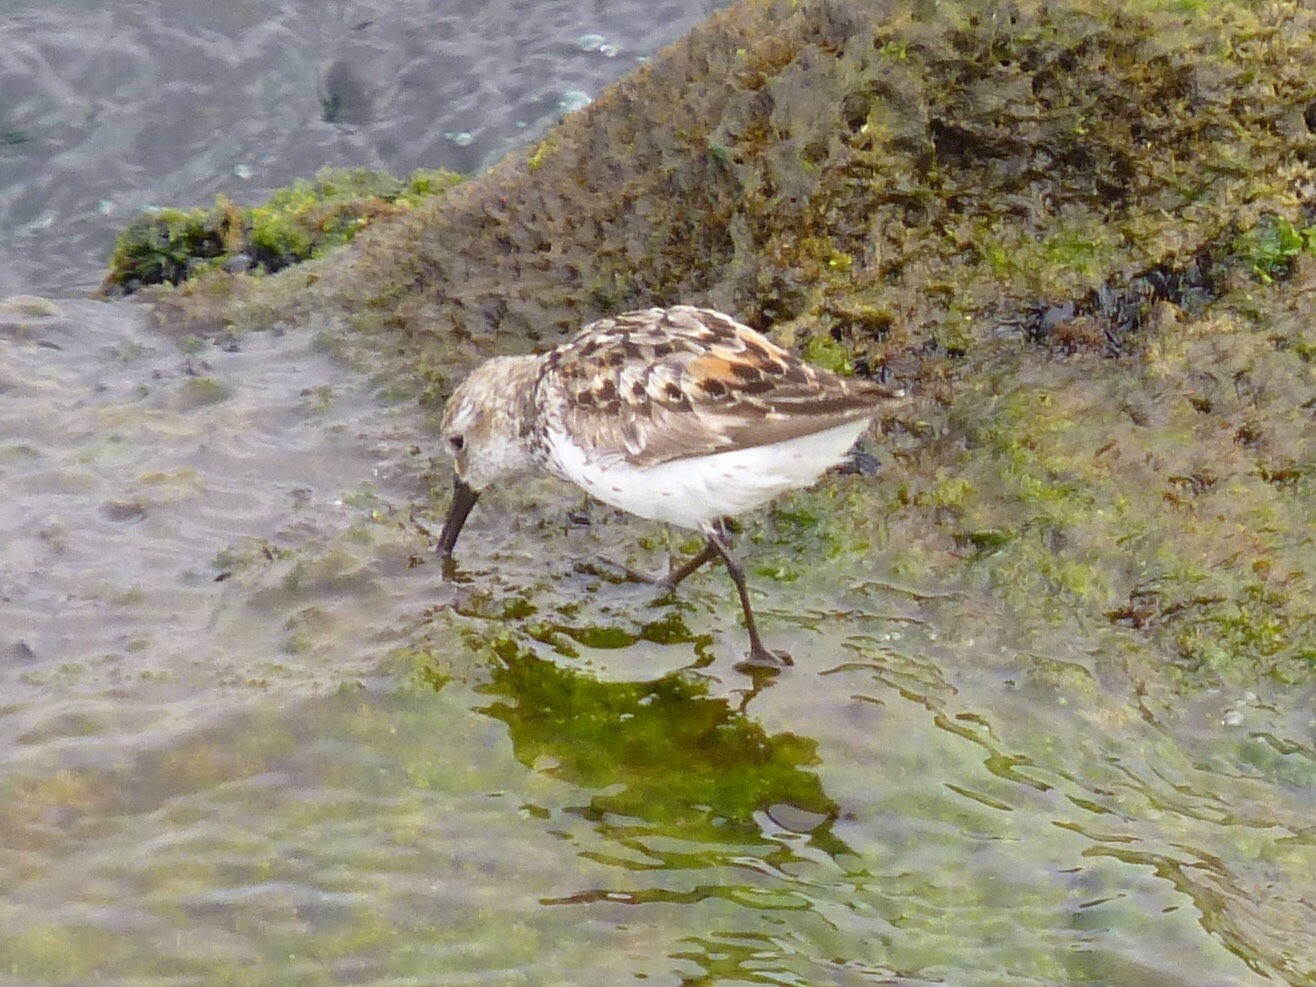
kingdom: Animalia
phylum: Chordata
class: Aves
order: Charadriiformes
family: Scolopacidae
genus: Calidris
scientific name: Calidris mauri
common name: Western sandpiper
